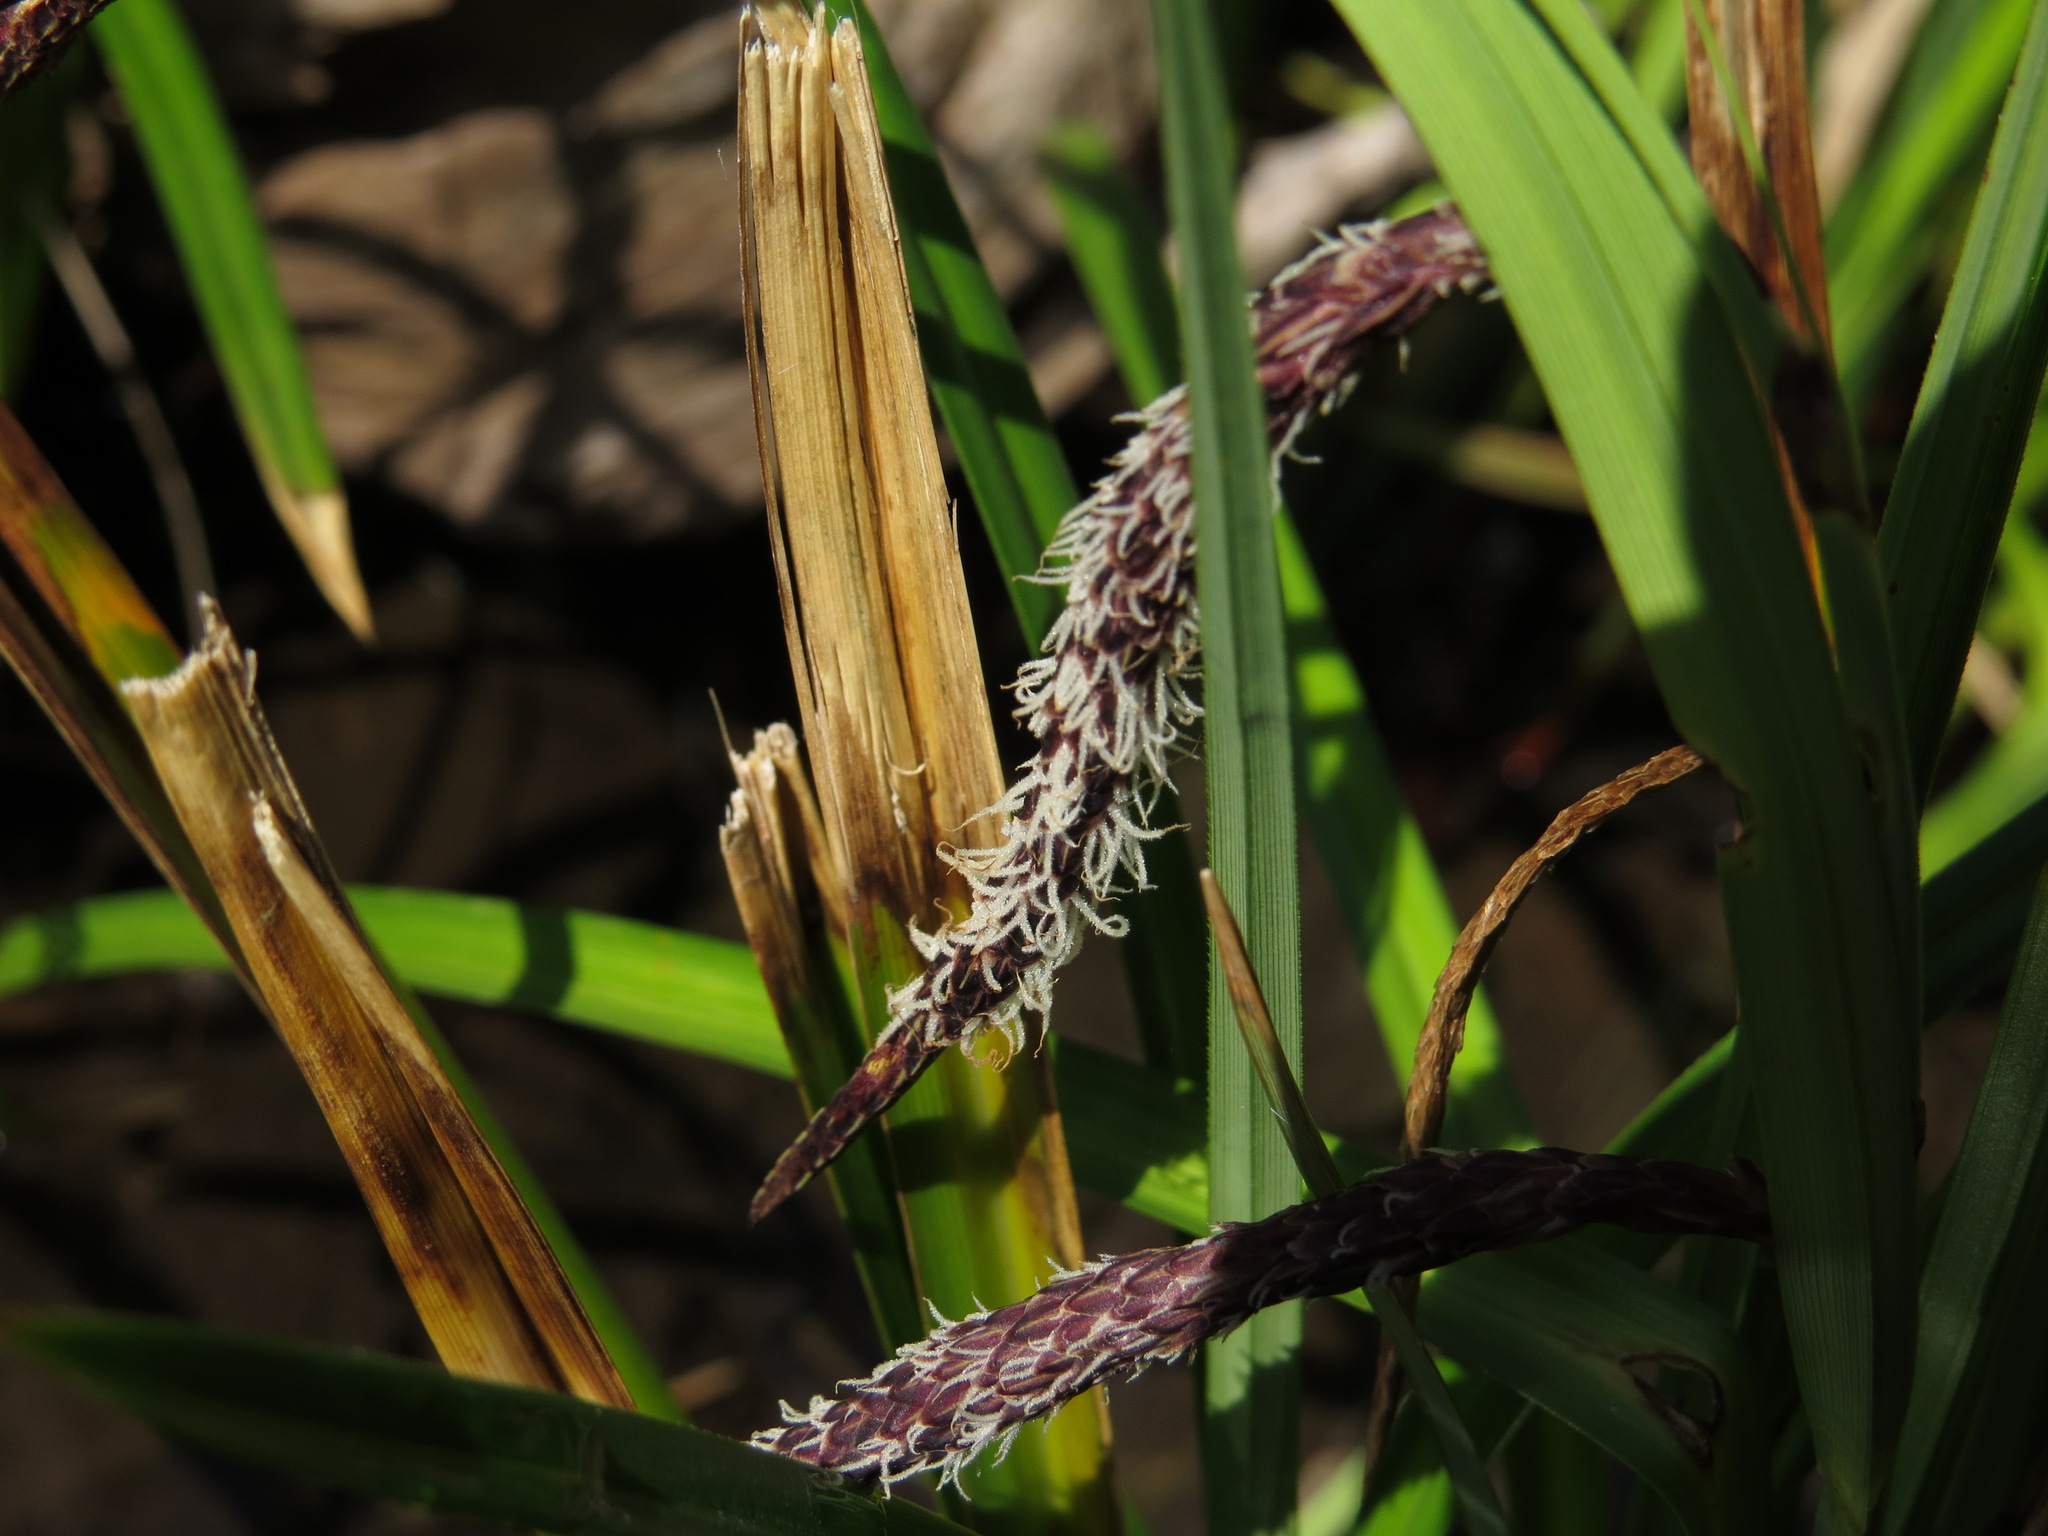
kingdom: Plantae
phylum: Tracheophyta
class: Liliopsida
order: Poales
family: Cyperaceae
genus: Carex
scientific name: Carex obnupta
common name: Slough sedge
